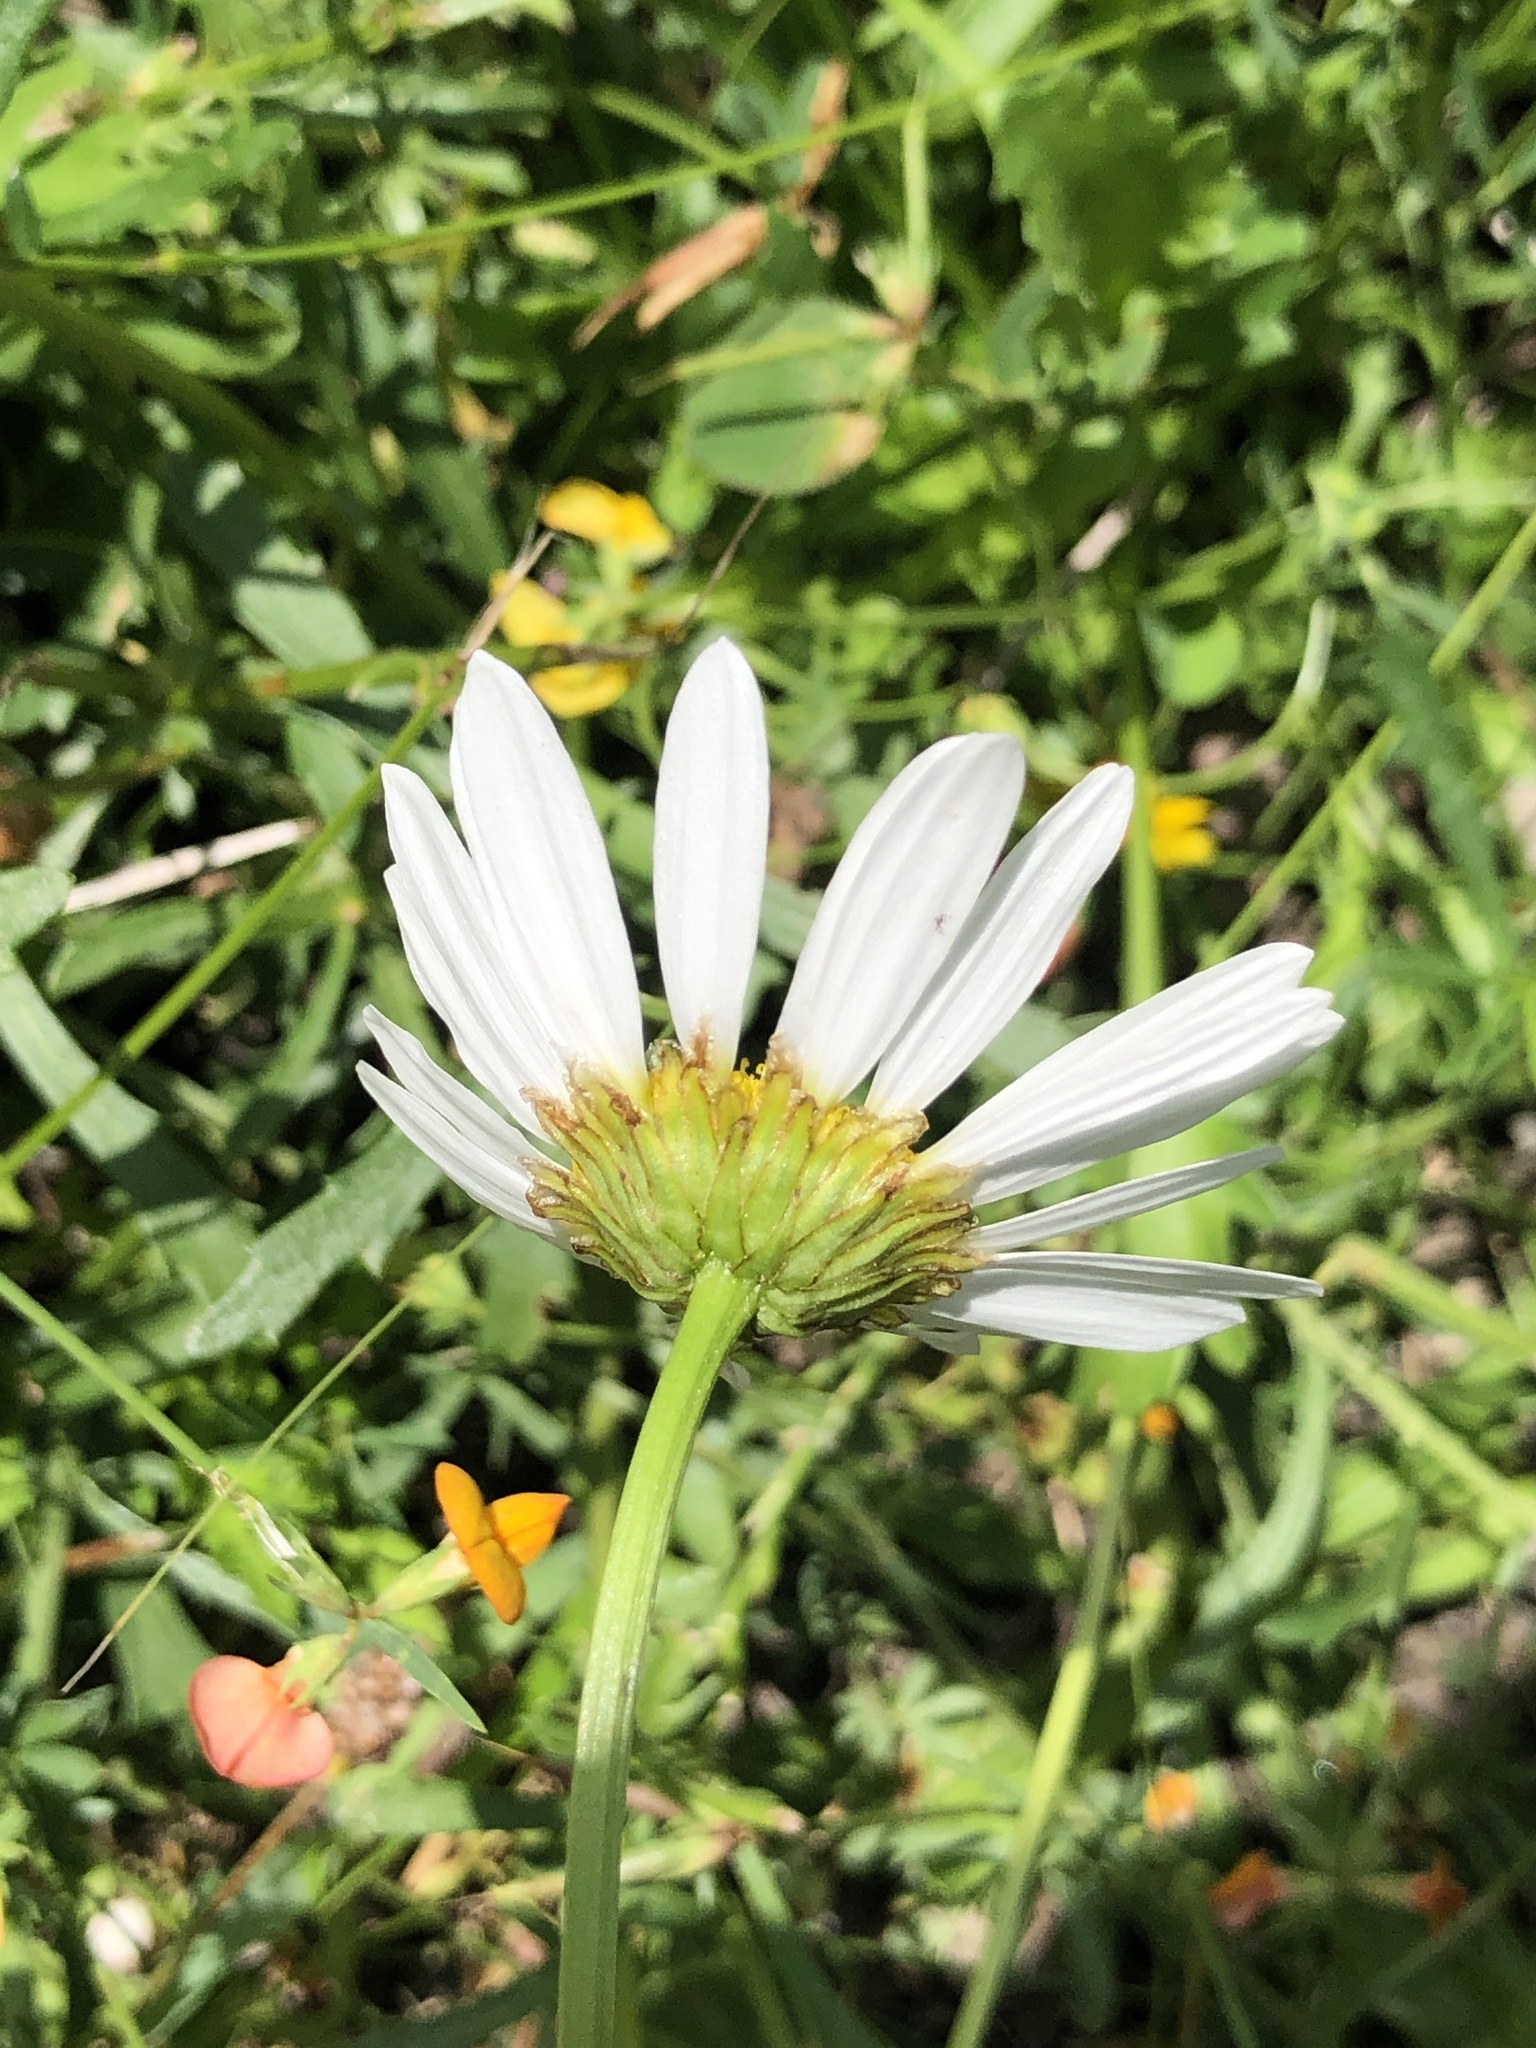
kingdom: Plantae
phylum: Tracheophyta
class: Magnoliopsida
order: Asterales
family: Asteraceae
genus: Leucanthemum
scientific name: Leucanthemum vulgare
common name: Oxeye daisy
